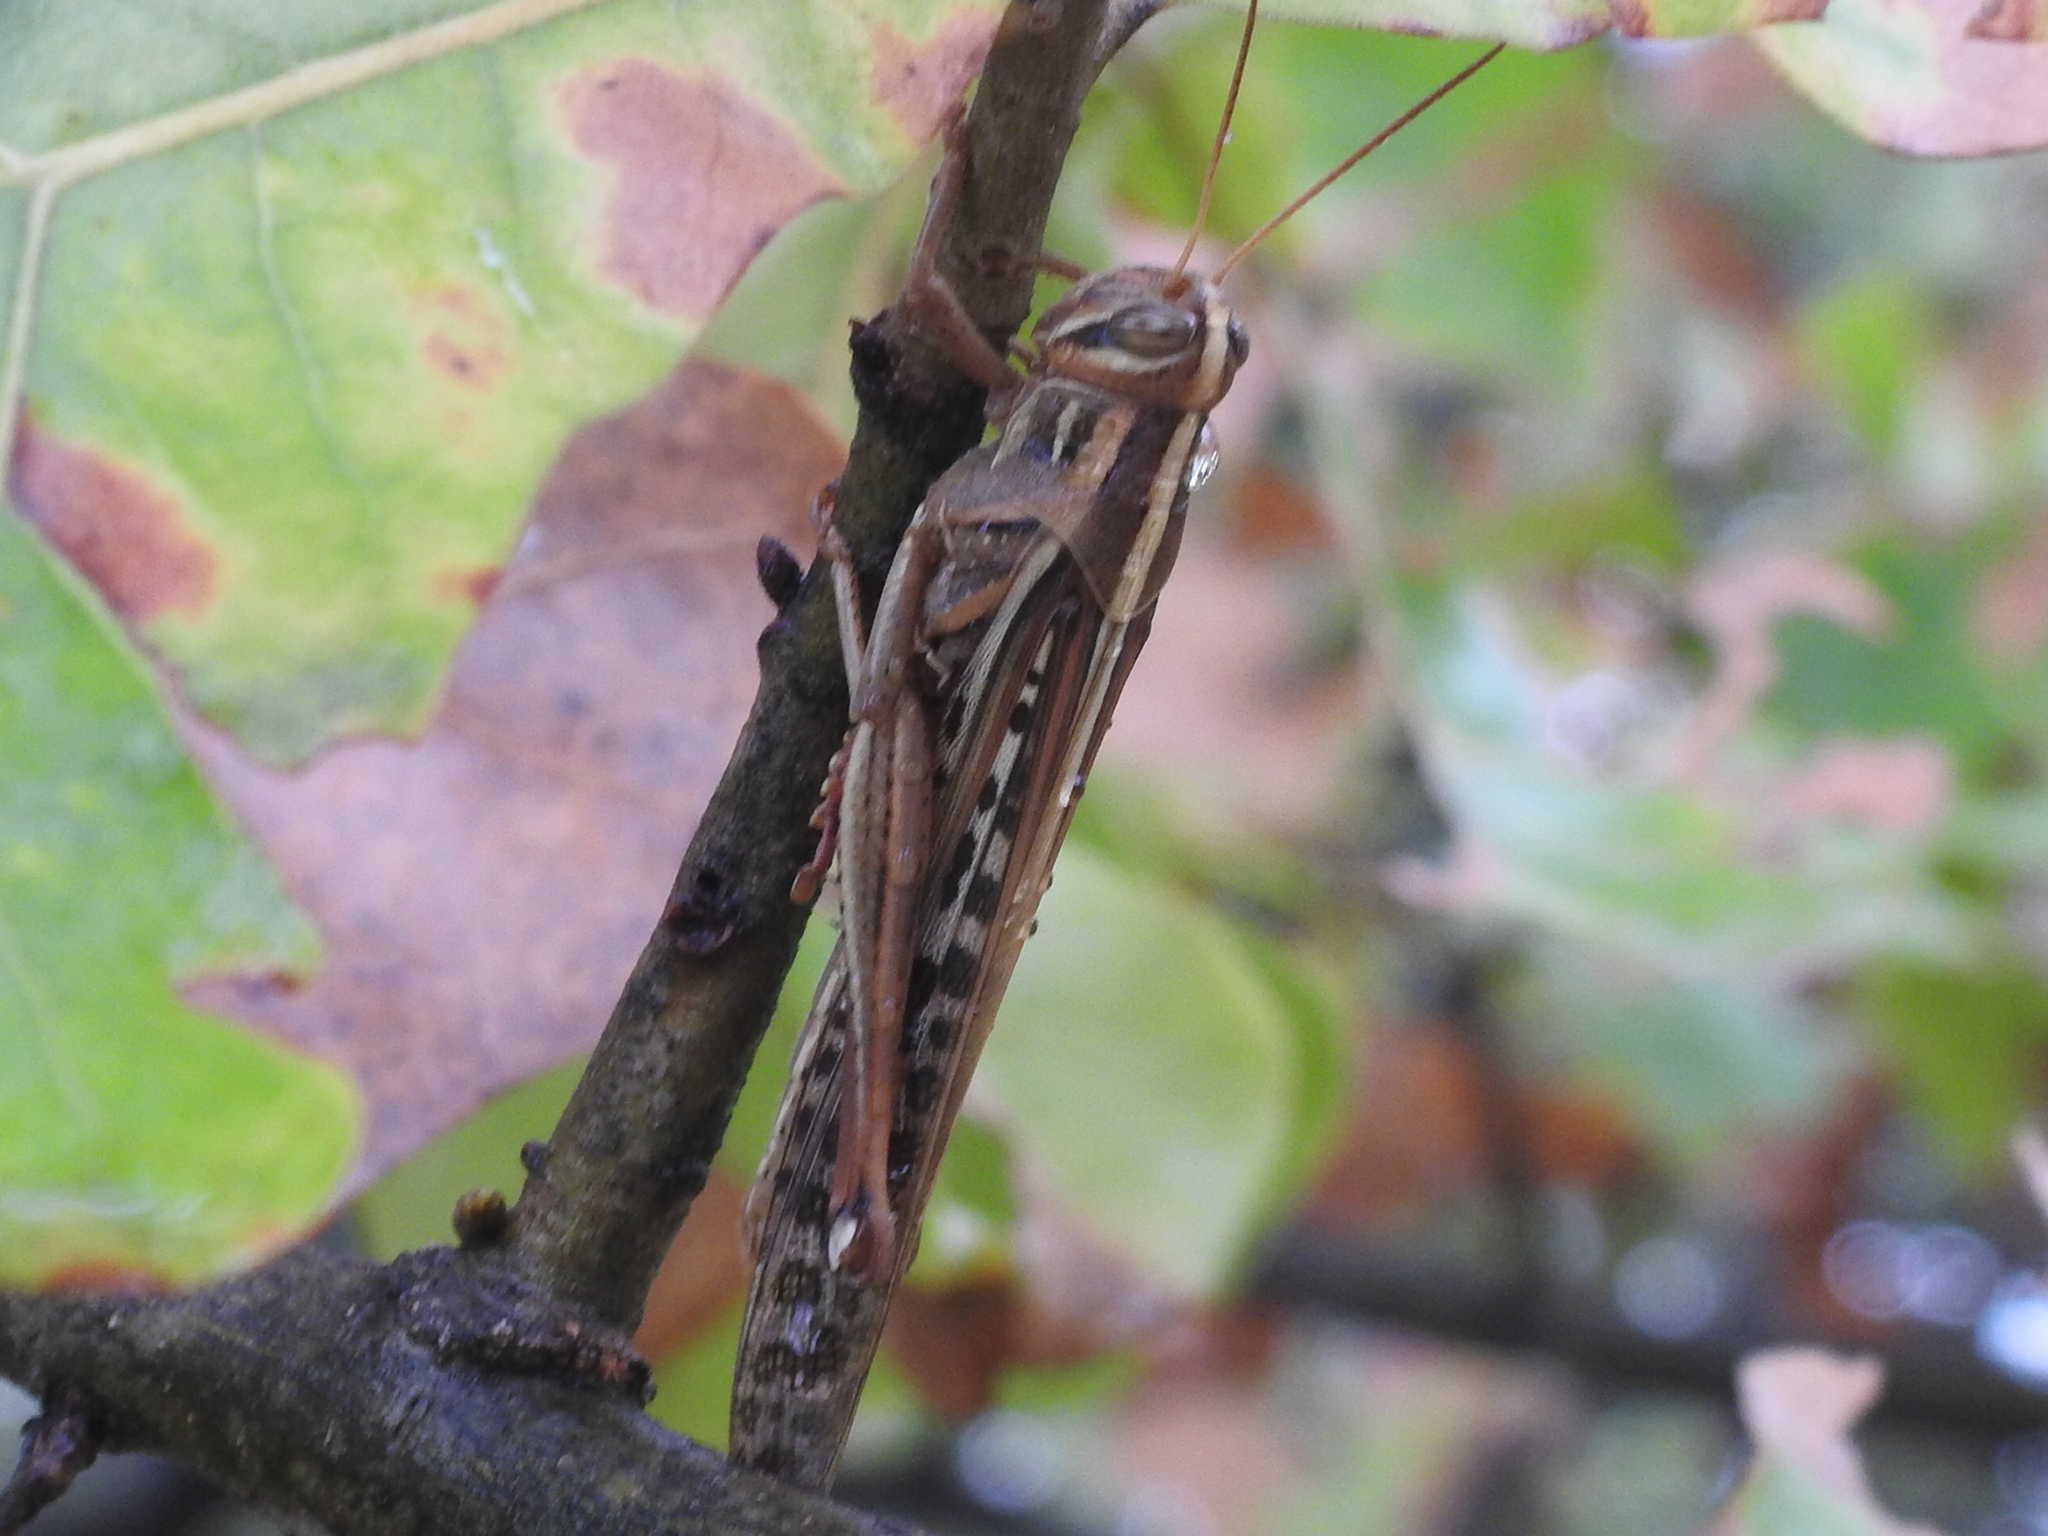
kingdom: Animalia
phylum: Arthropoda
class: Insecta
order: Orthoptera
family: Acrididae
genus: Schistocerca
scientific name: Schistocerca americana
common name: American bird locust
